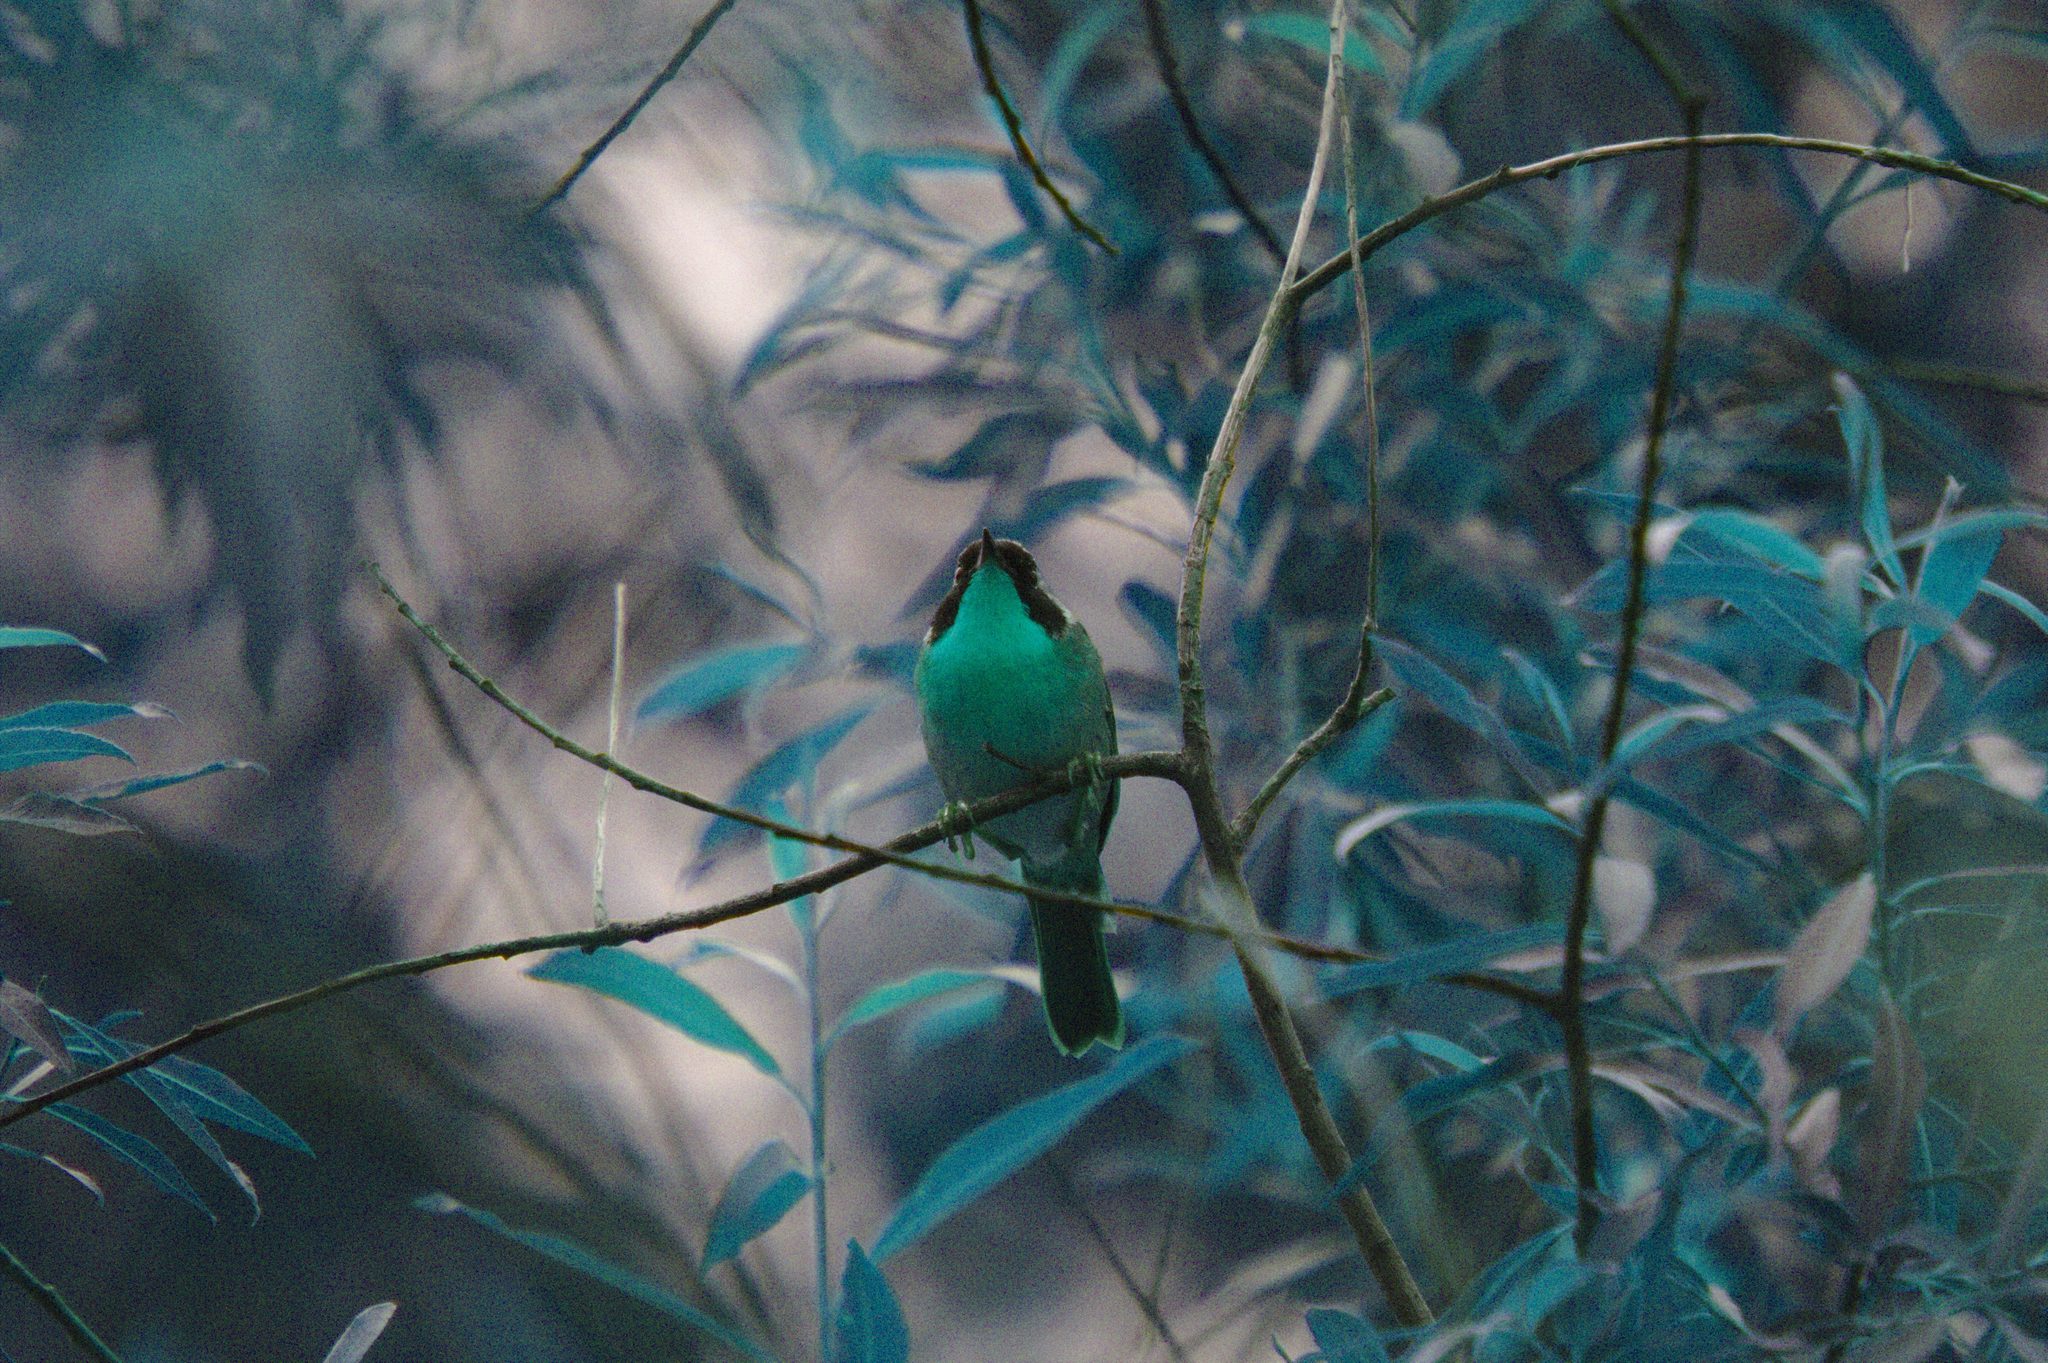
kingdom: Animalia
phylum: Chordata
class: Aves
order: Passeriformes
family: Parulidae
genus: Geothlypis
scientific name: Geothlypis trichas
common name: Common yellowthroat
